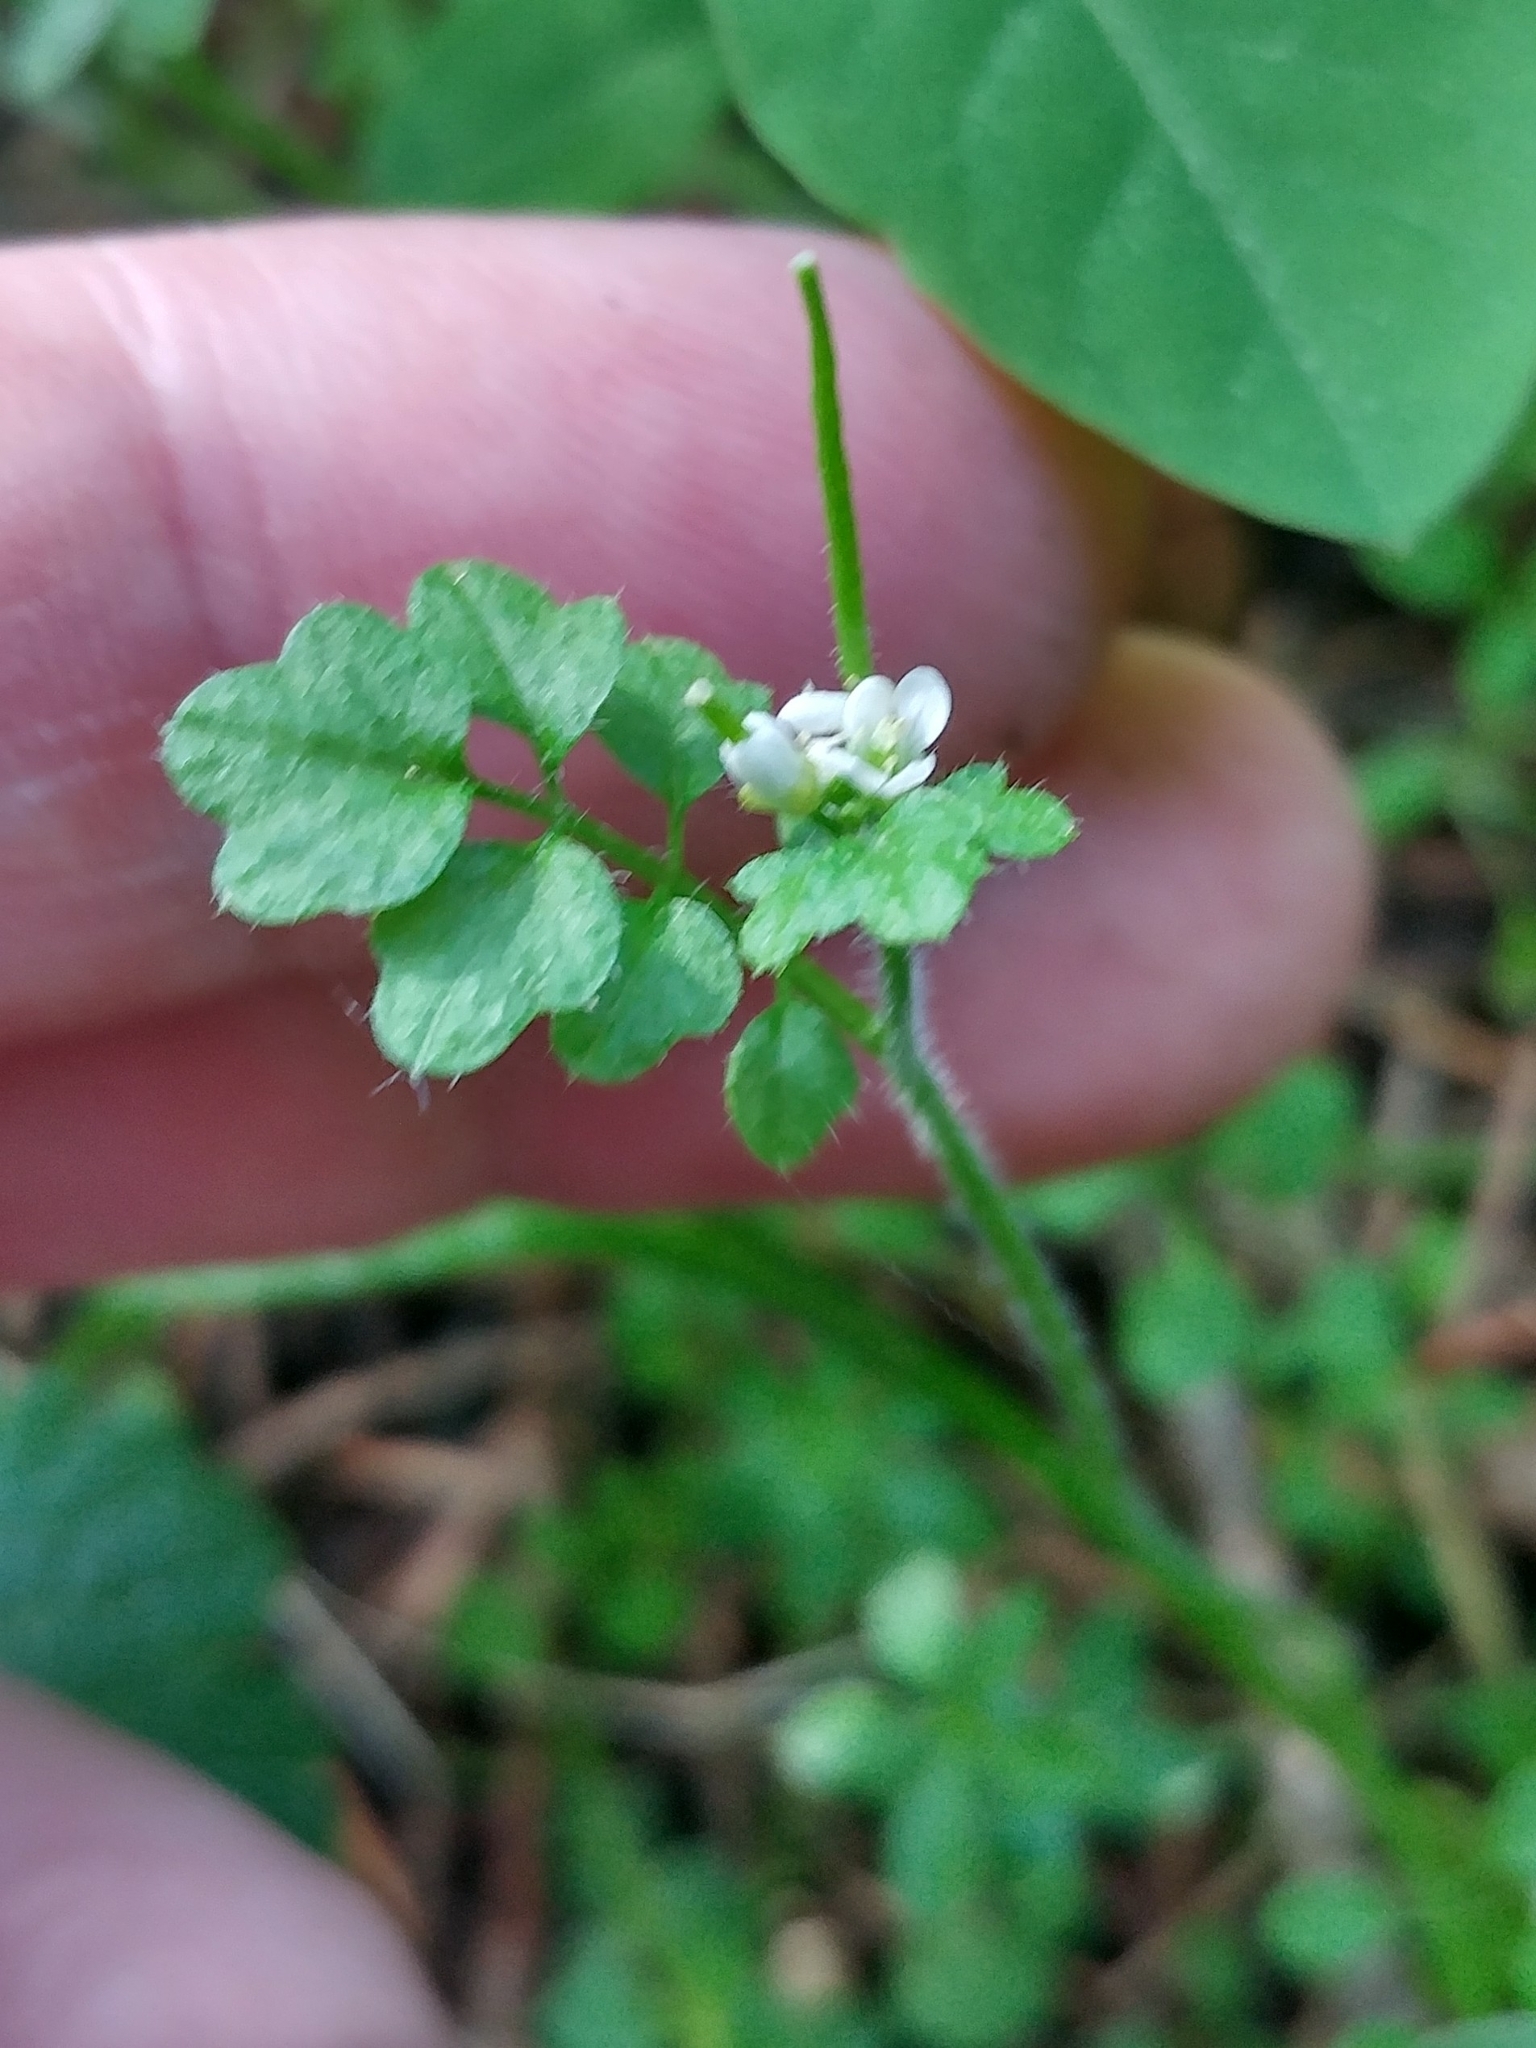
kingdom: Plantae
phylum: Tracheophyta
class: Magnoliopsida
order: Brassicales
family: Brassicaceae
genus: Cardamine
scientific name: Cardamine oligosperma
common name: Idaho bittercress
